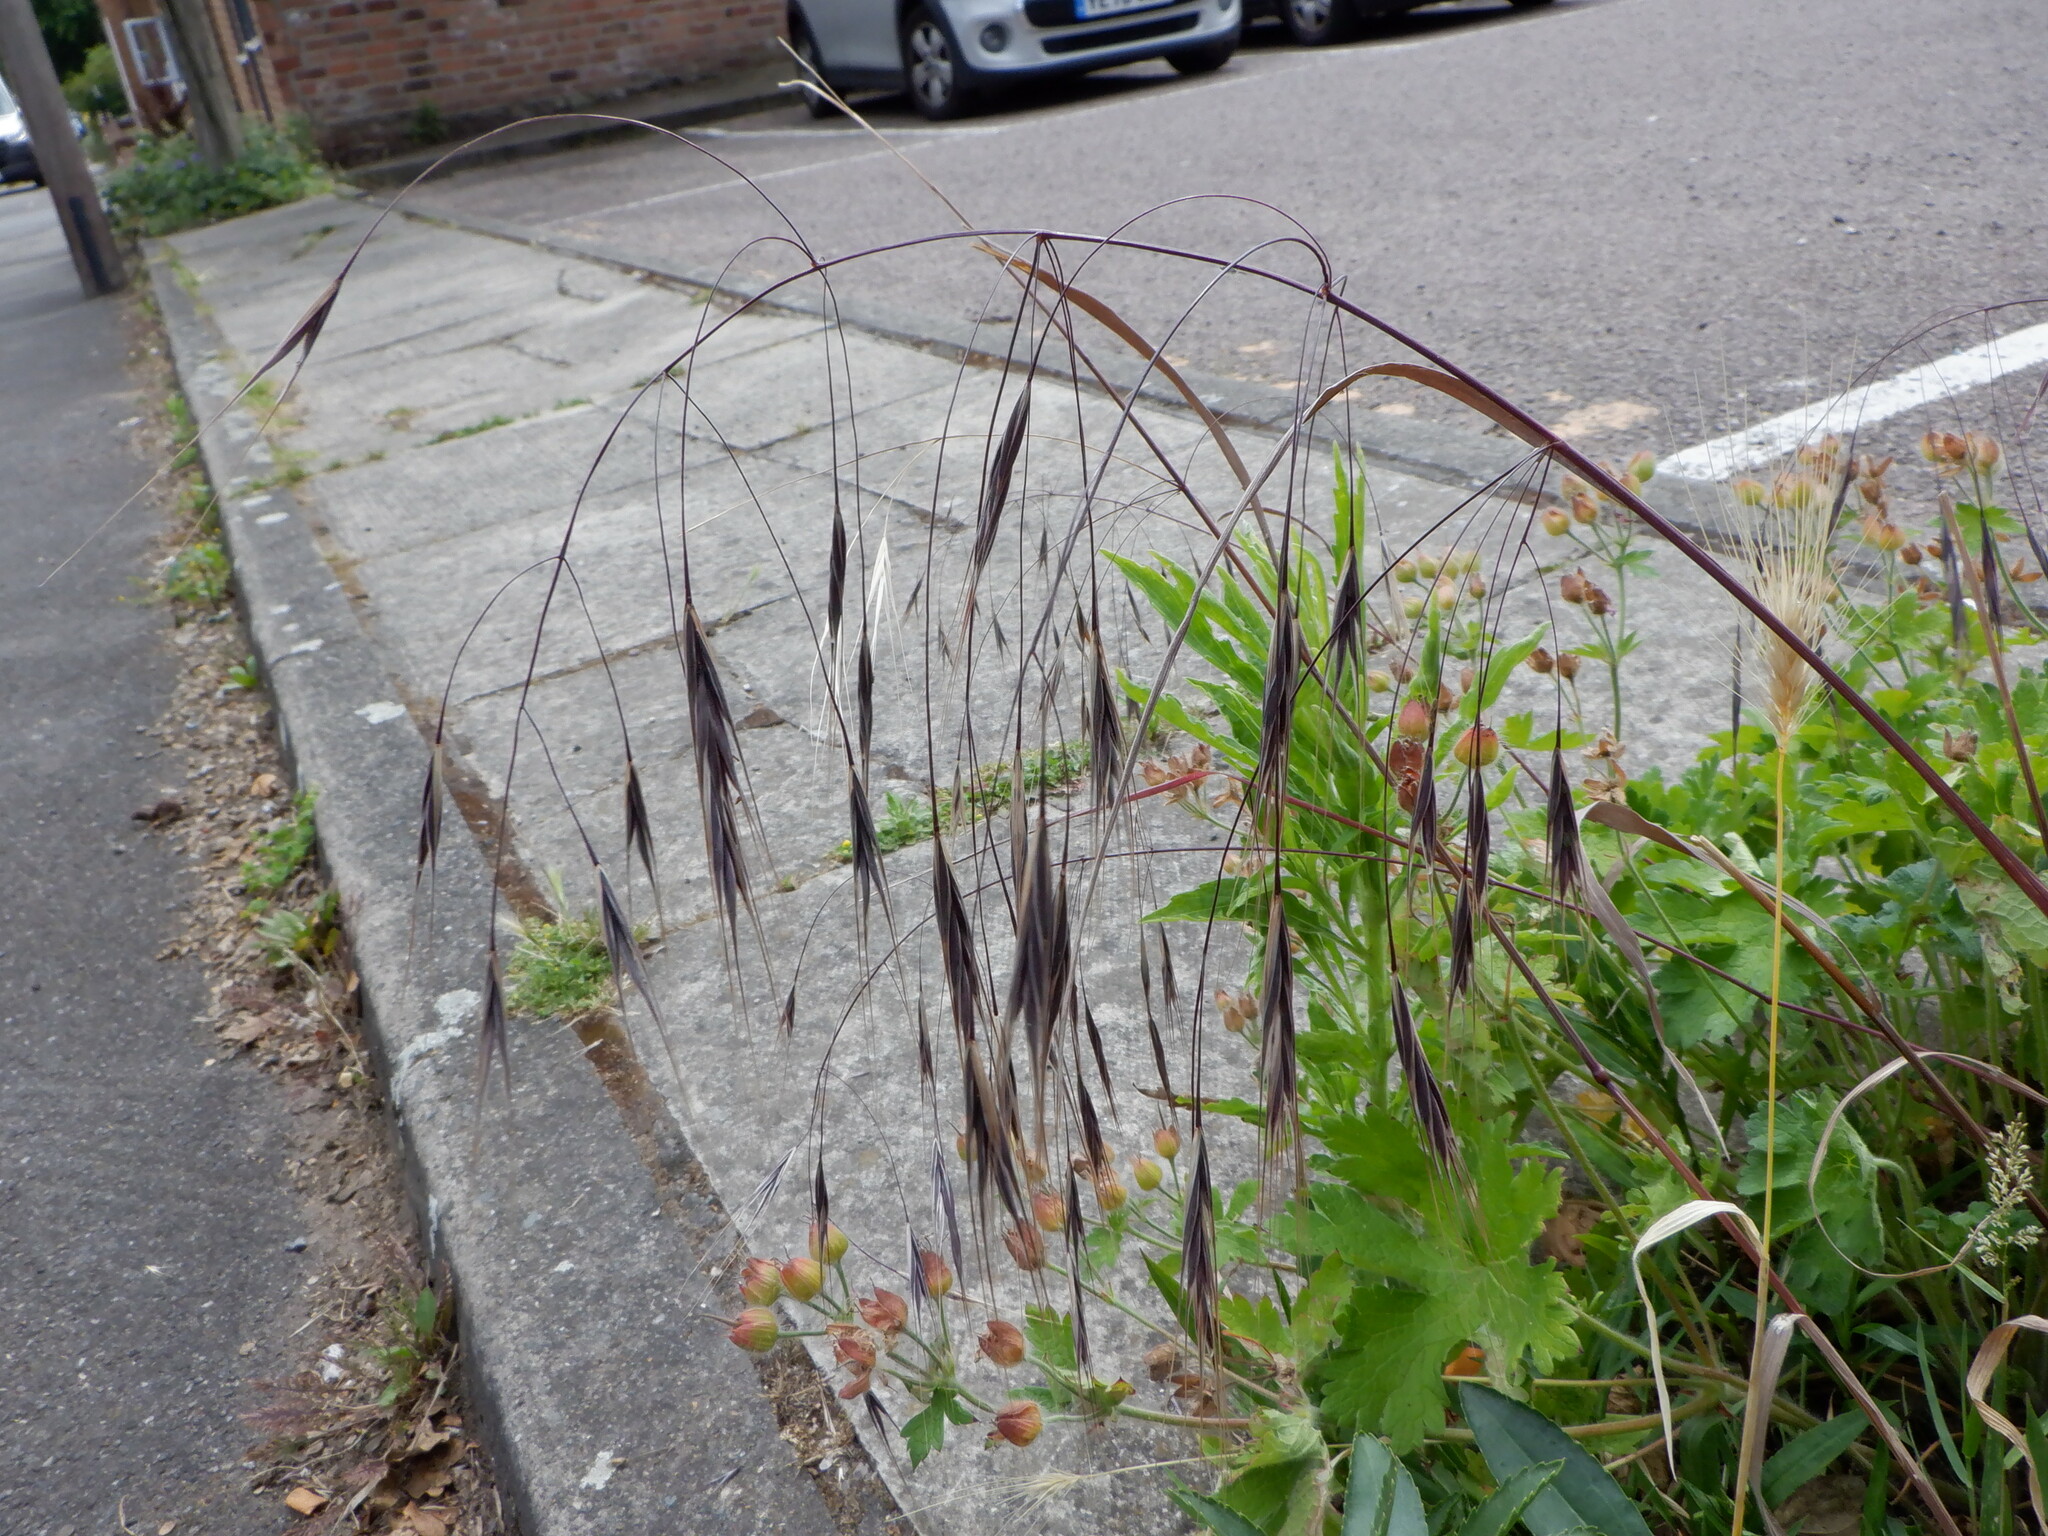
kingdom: Plantae
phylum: Tracheophyta
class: Liliopsida
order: Poales
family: Poaceae
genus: Bromus
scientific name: Bromus sterilis
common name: Poverty brome
